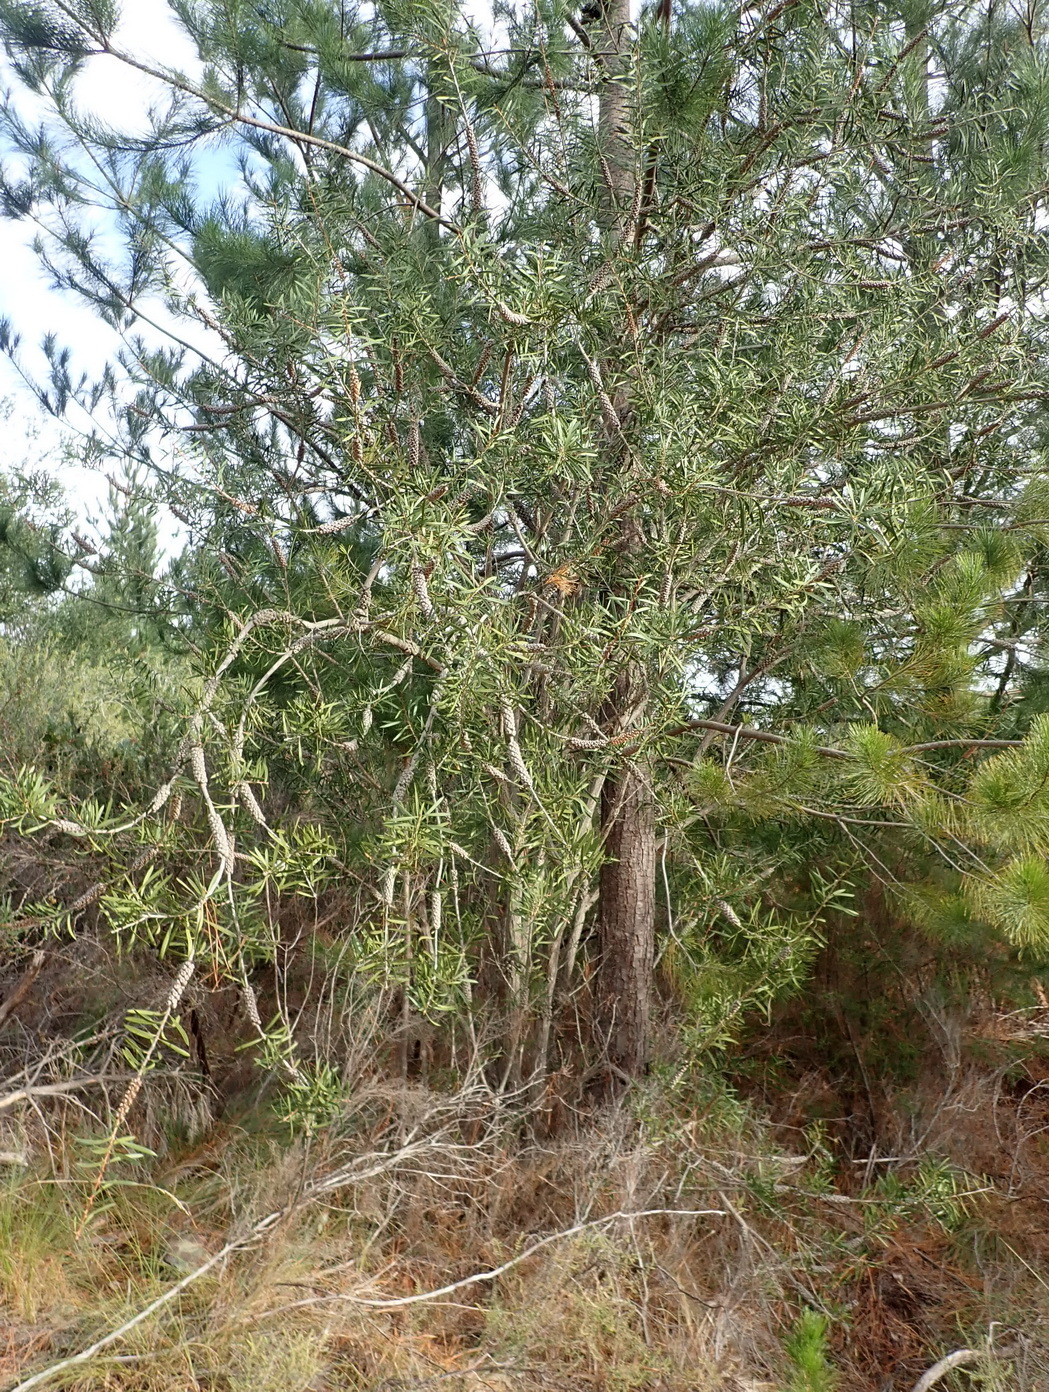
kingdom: Plantae
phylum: Tracheophyta
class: Magnoliopsida
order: Myrtales
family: Myrtaceae
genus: Callistemon
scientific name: Callistemon rugulosus
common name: Scarlet bottlebrush
